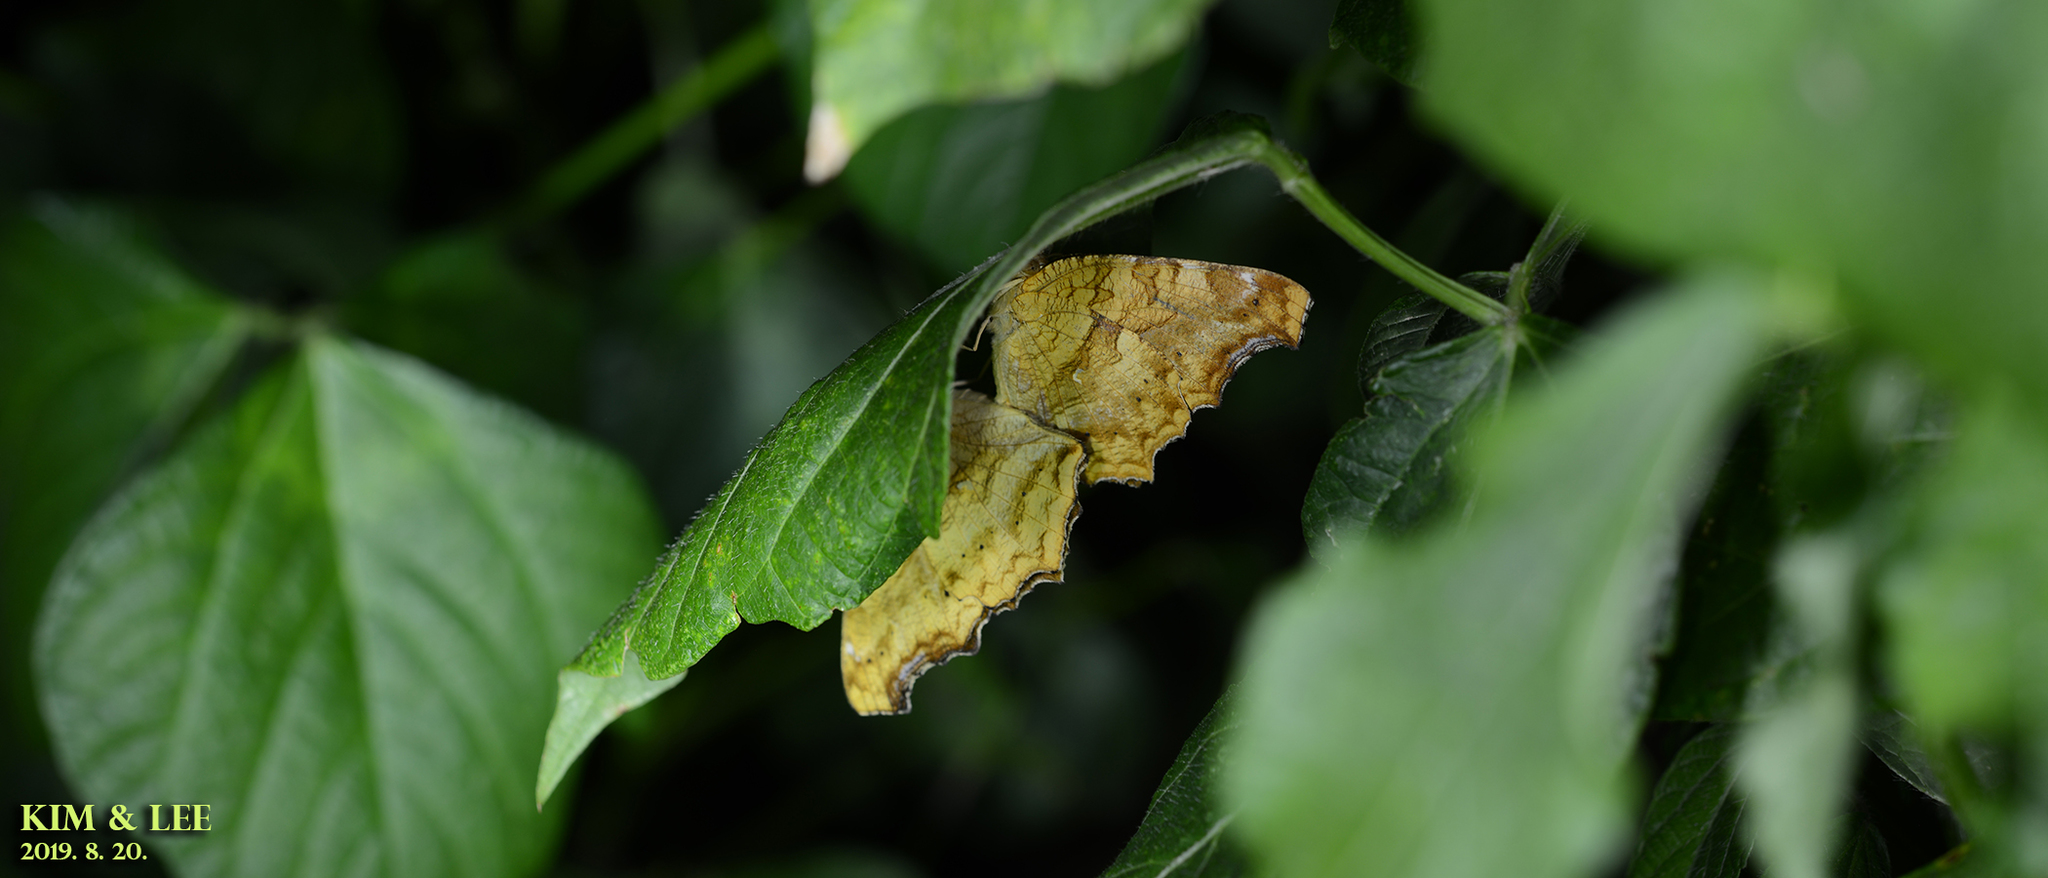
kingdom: Animalia
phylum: Arthropoda
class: Insecta
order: Lepidoptera
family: Nymphalidae
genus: Polygonia
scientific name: Polygonia c-aureum
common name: Asian comma
